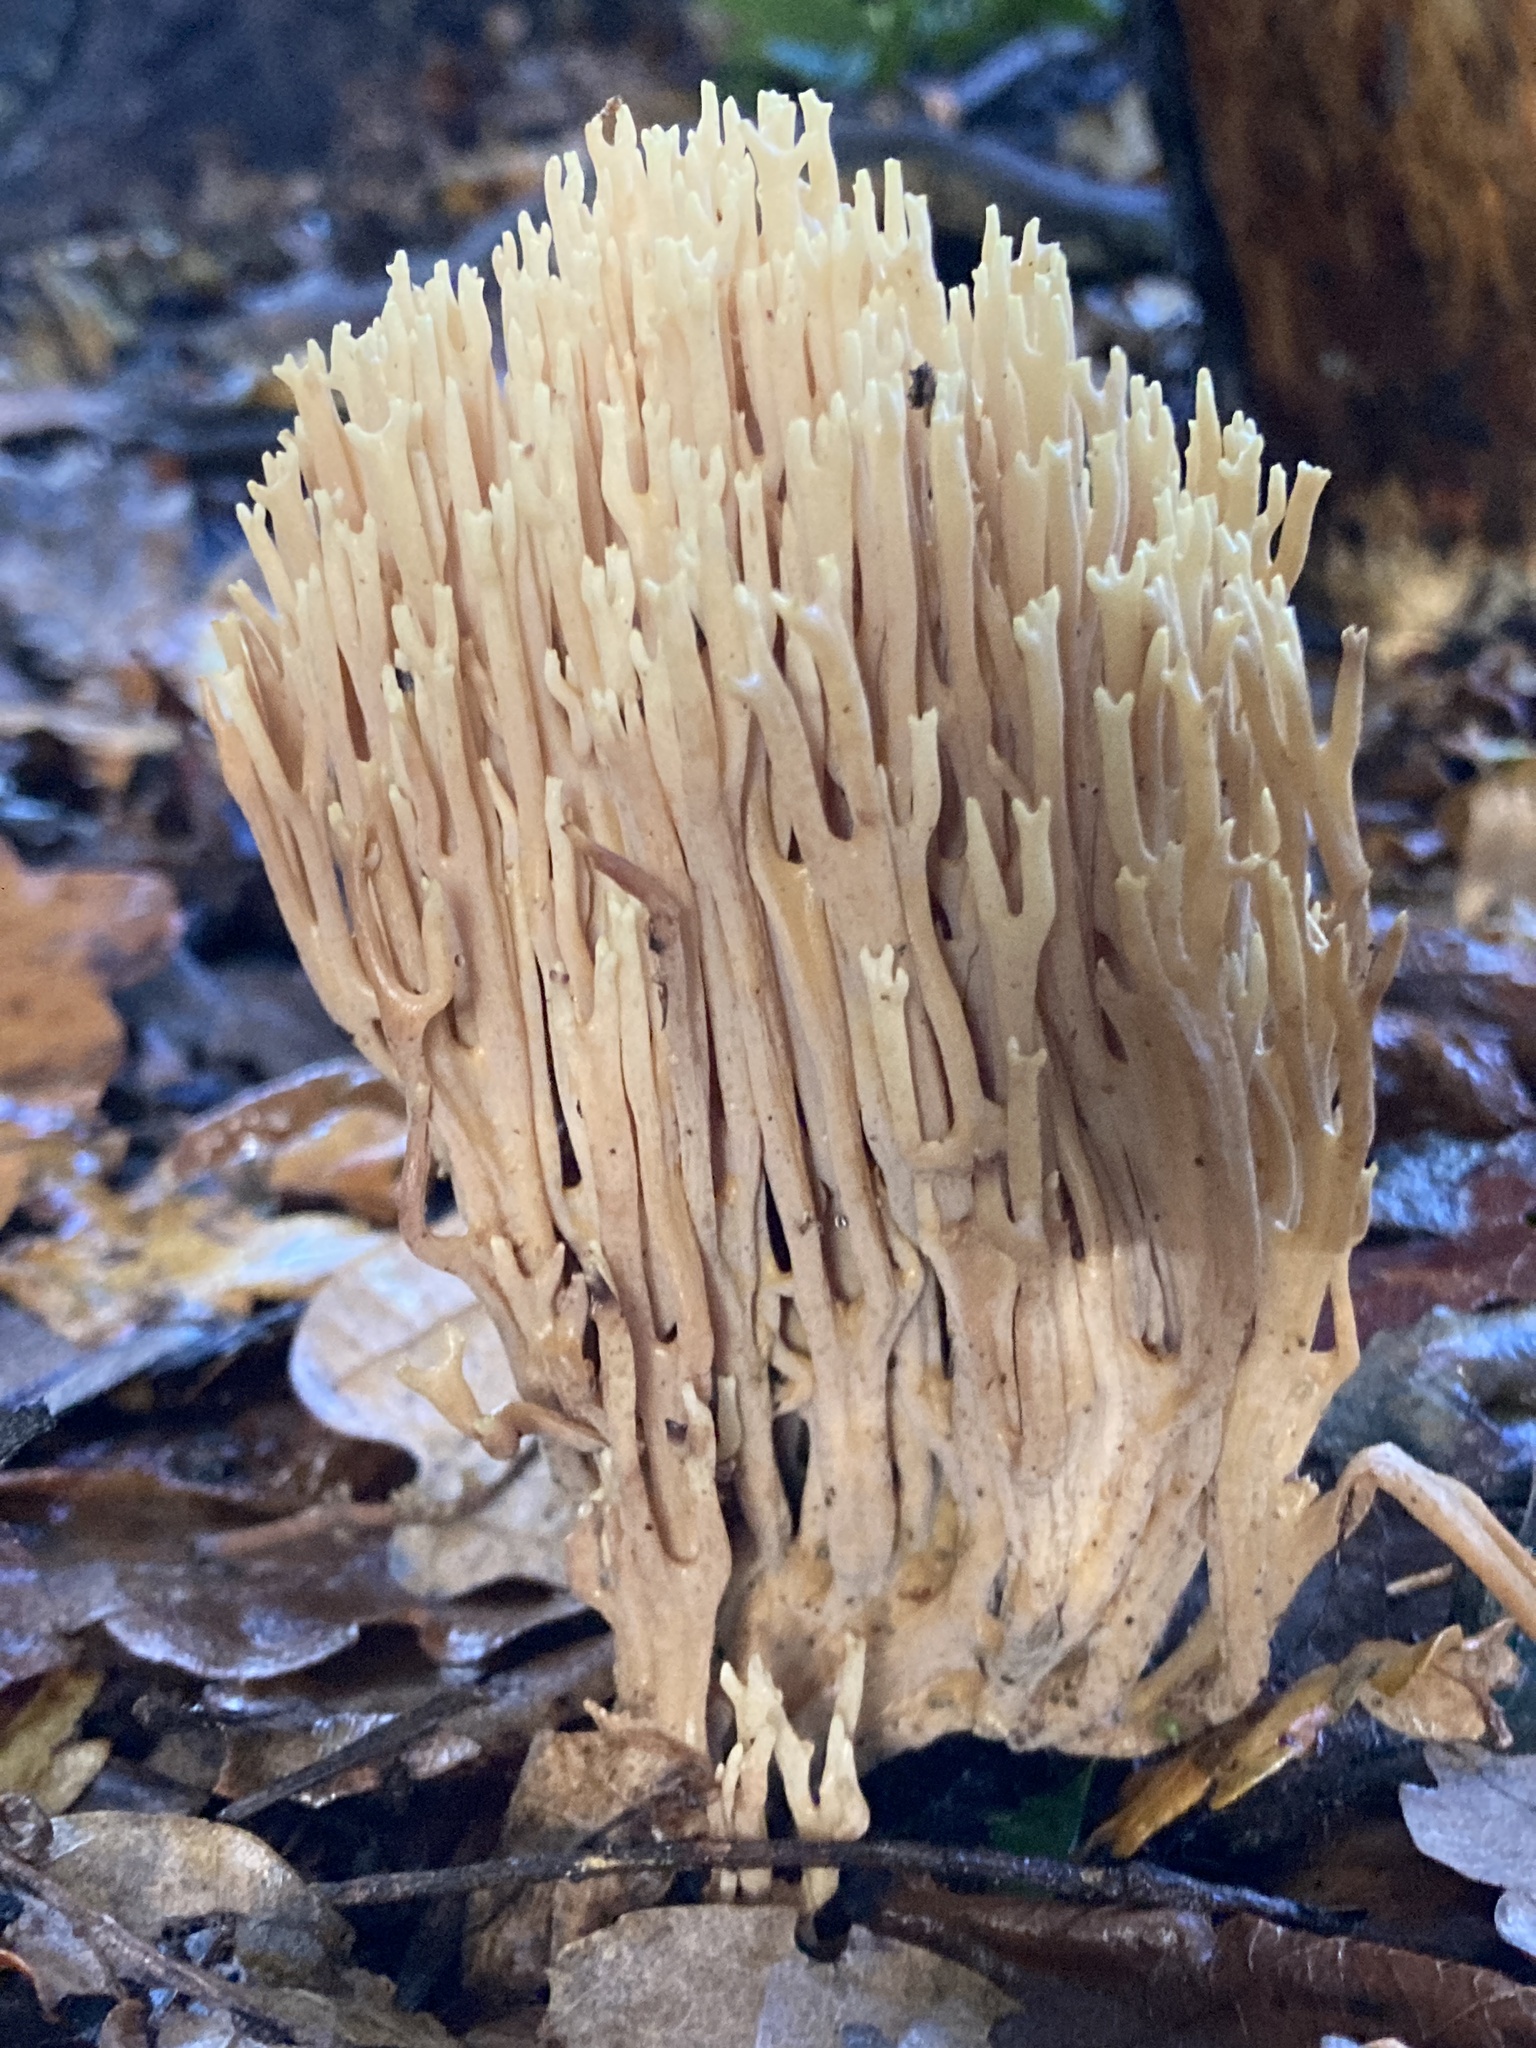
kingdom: Fungi
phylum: Basidiomycota
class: Agaricomycetes
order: Gomphales
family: Gomphaceae
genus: Ramaria
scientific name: Ramaria stricta
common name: Upright coral
